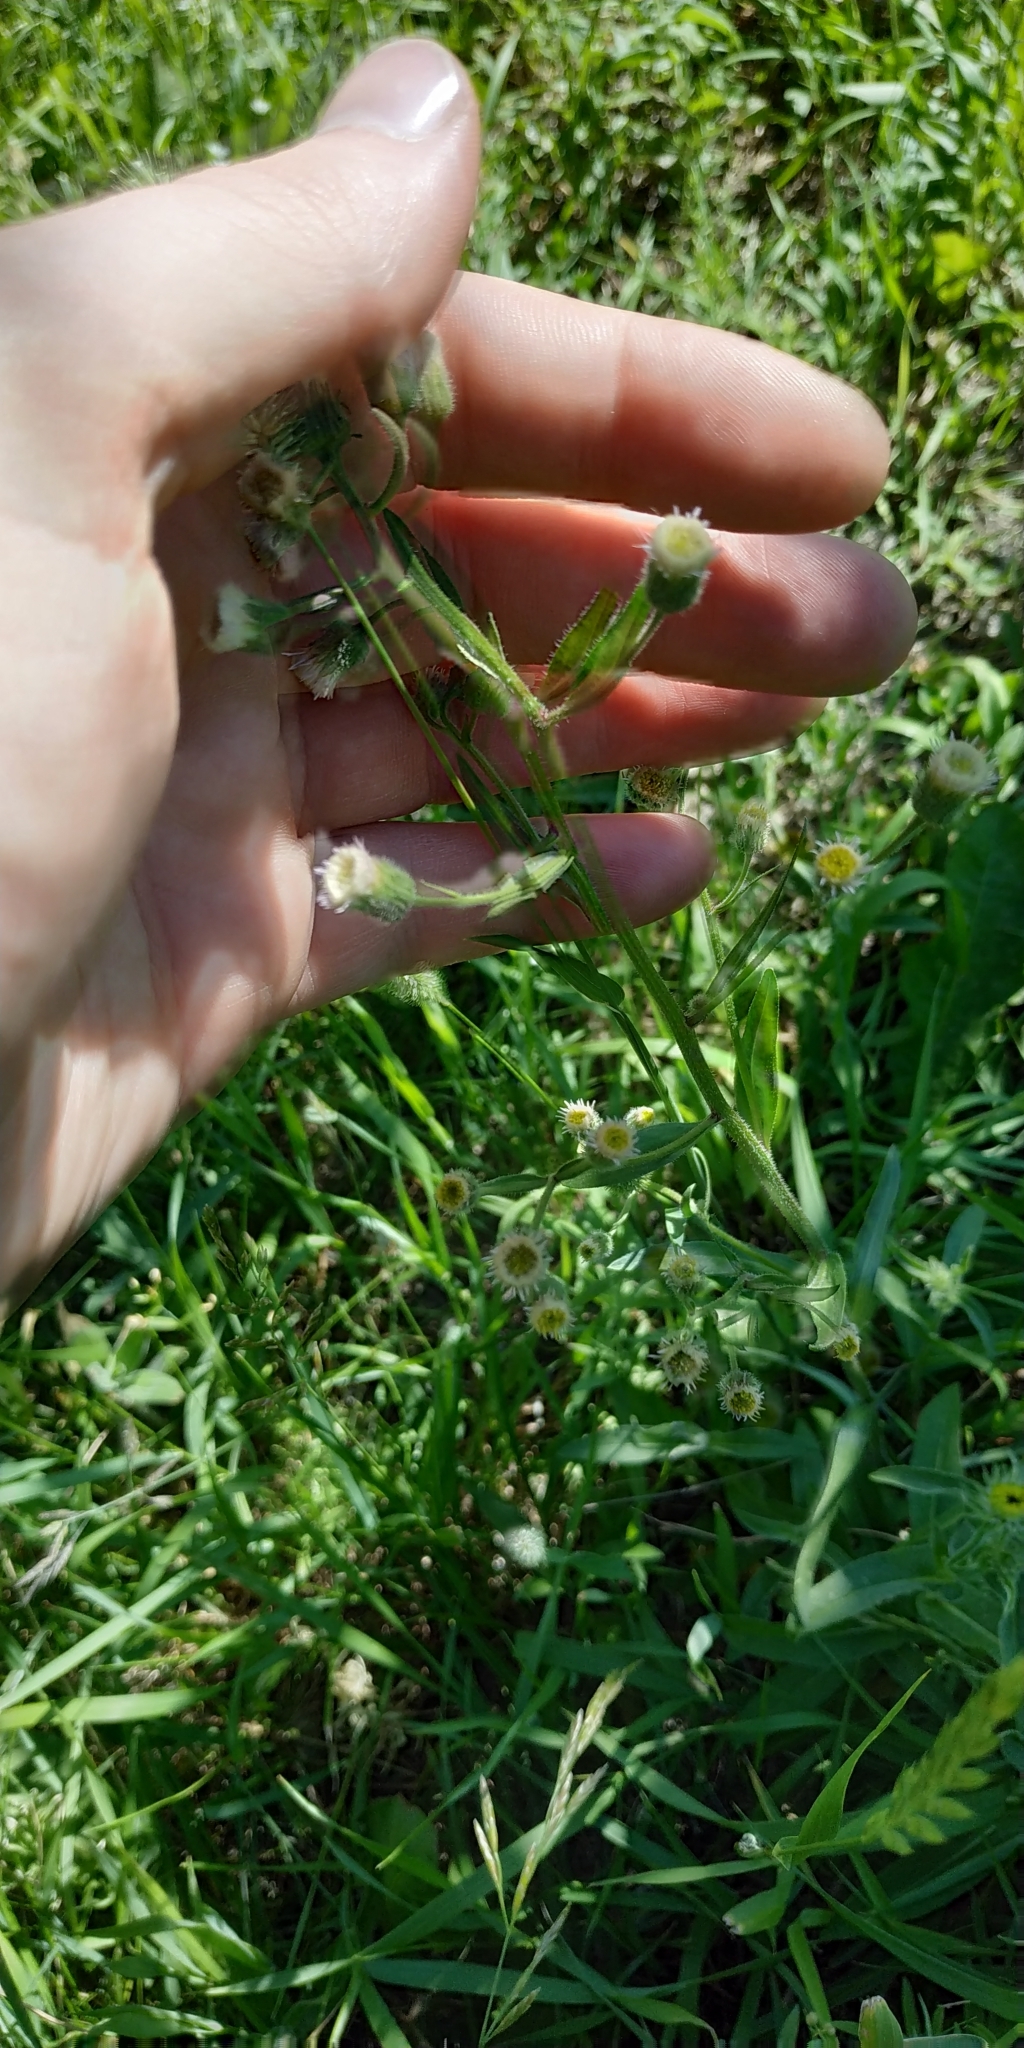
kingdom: Plantae
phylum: Tracheophyta
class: Magnoliopsida
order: Asterales
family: Asteraceae
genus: Erigeron
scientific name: Erigeron acris
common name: Blue fleabane
